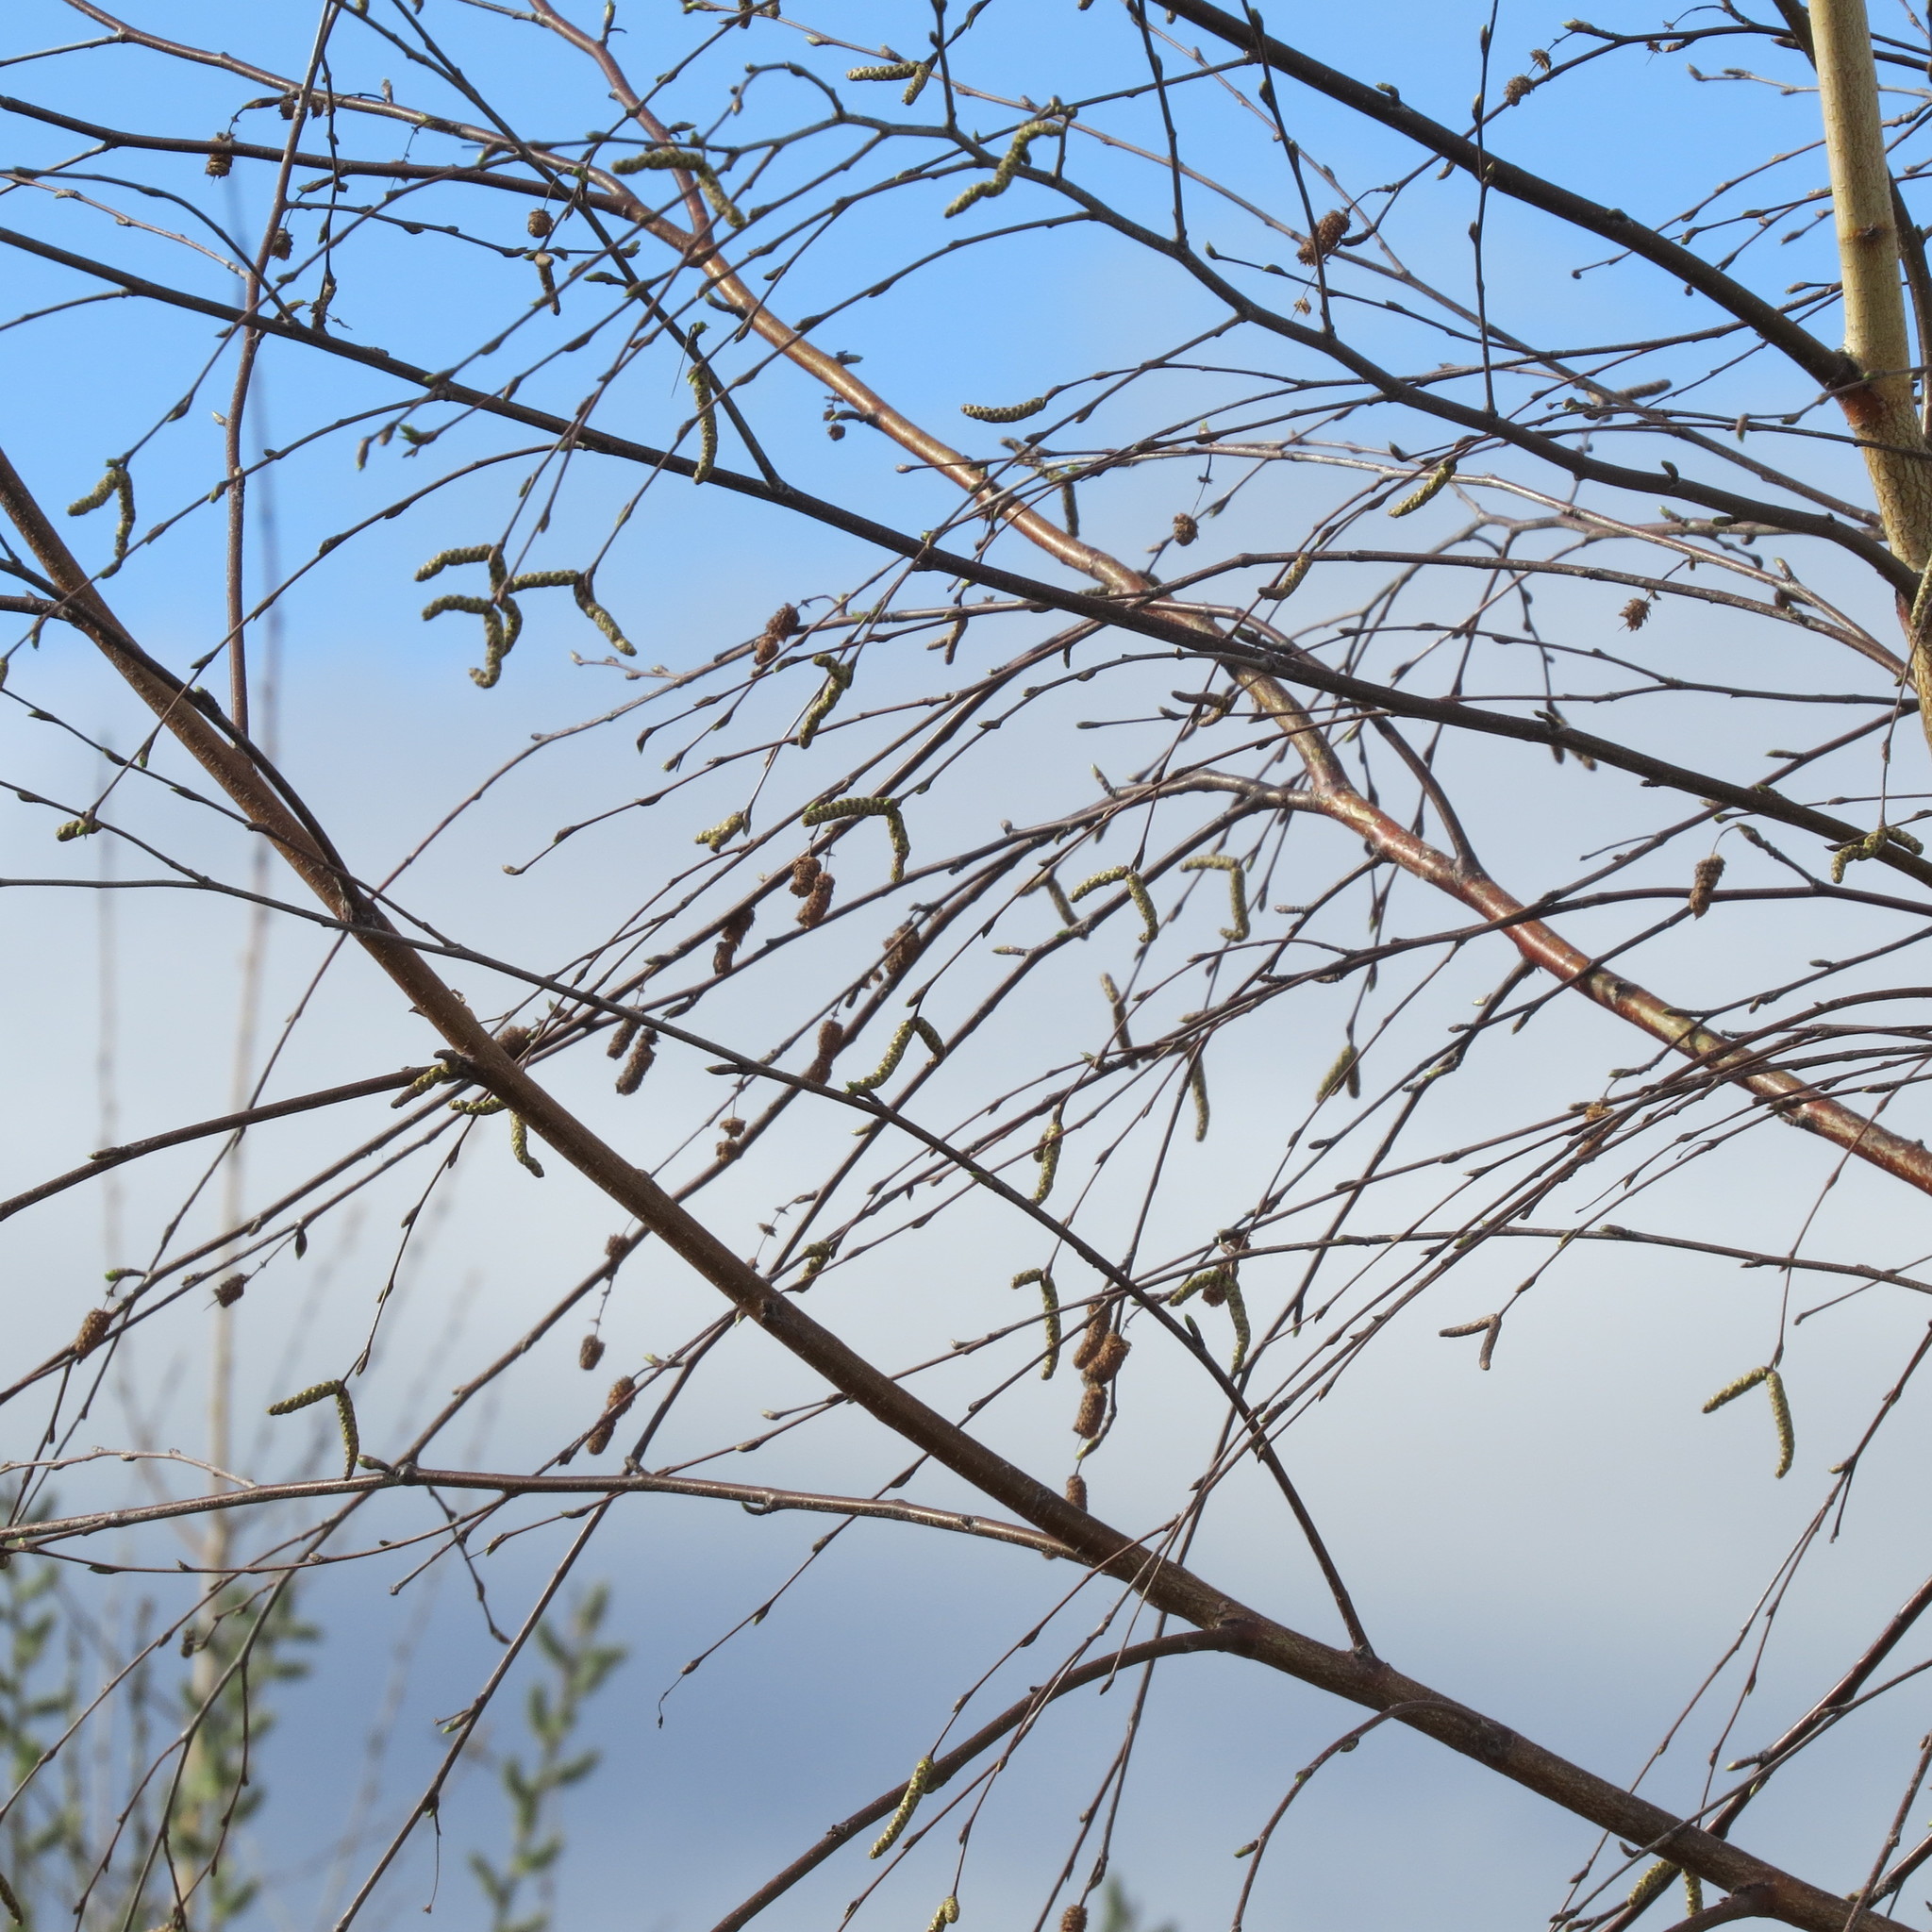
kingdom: Plantae
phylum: Tracheophyta
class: Magnoliopsida
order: Fagales
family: Betulaceae
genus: Betula
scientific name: Betula pendula
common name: Silver birch
